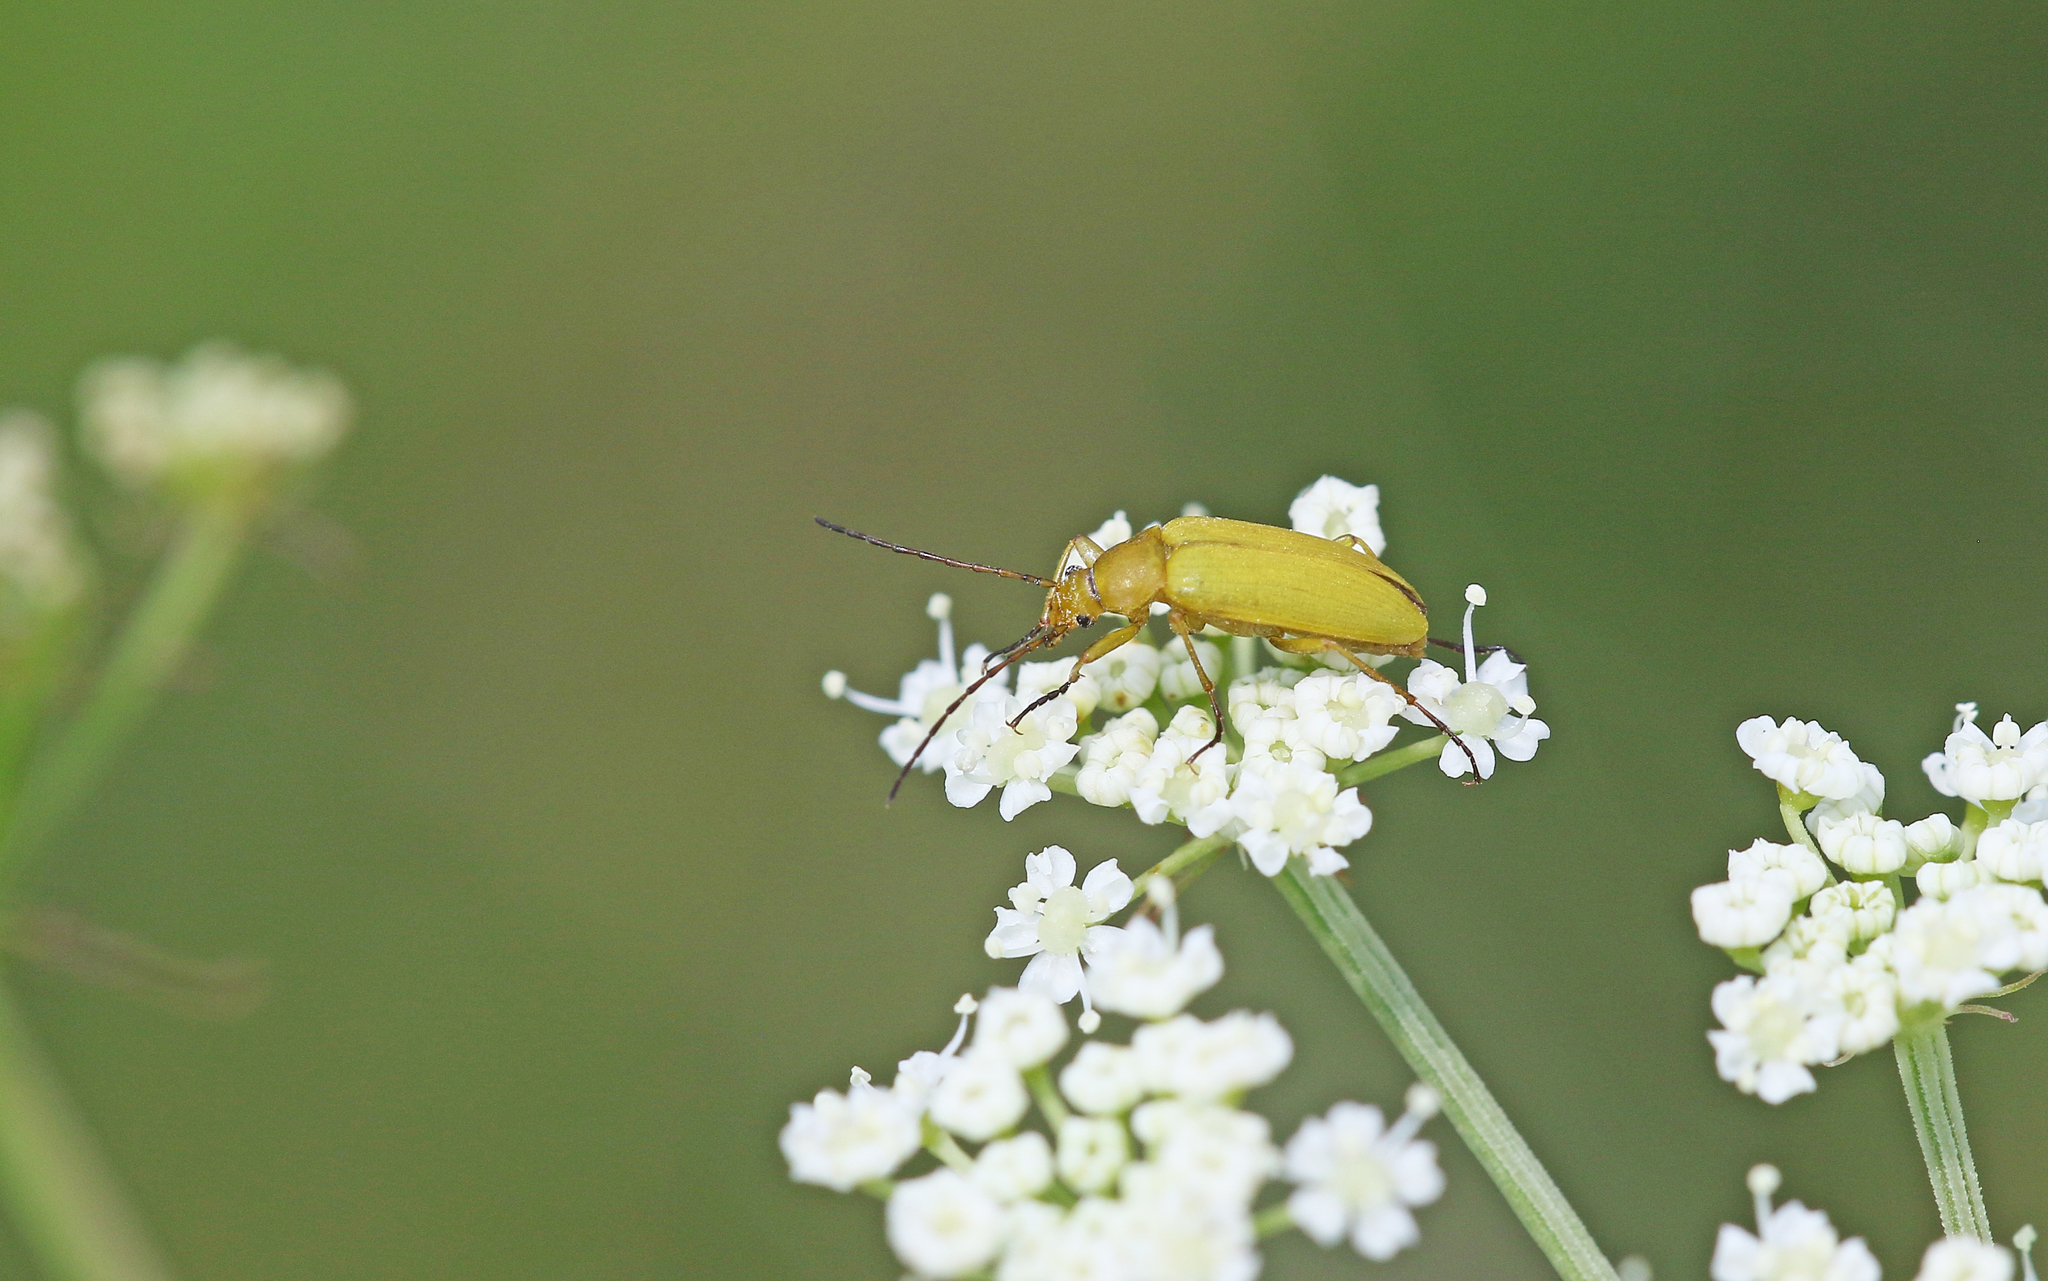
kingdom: Animalia
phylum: Arthropoda
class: Insecta
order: Coleoptera
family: Tenebrionidae
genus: Cteniopus
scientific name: Cteniopus sulphureus
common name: Sulphur beetle
